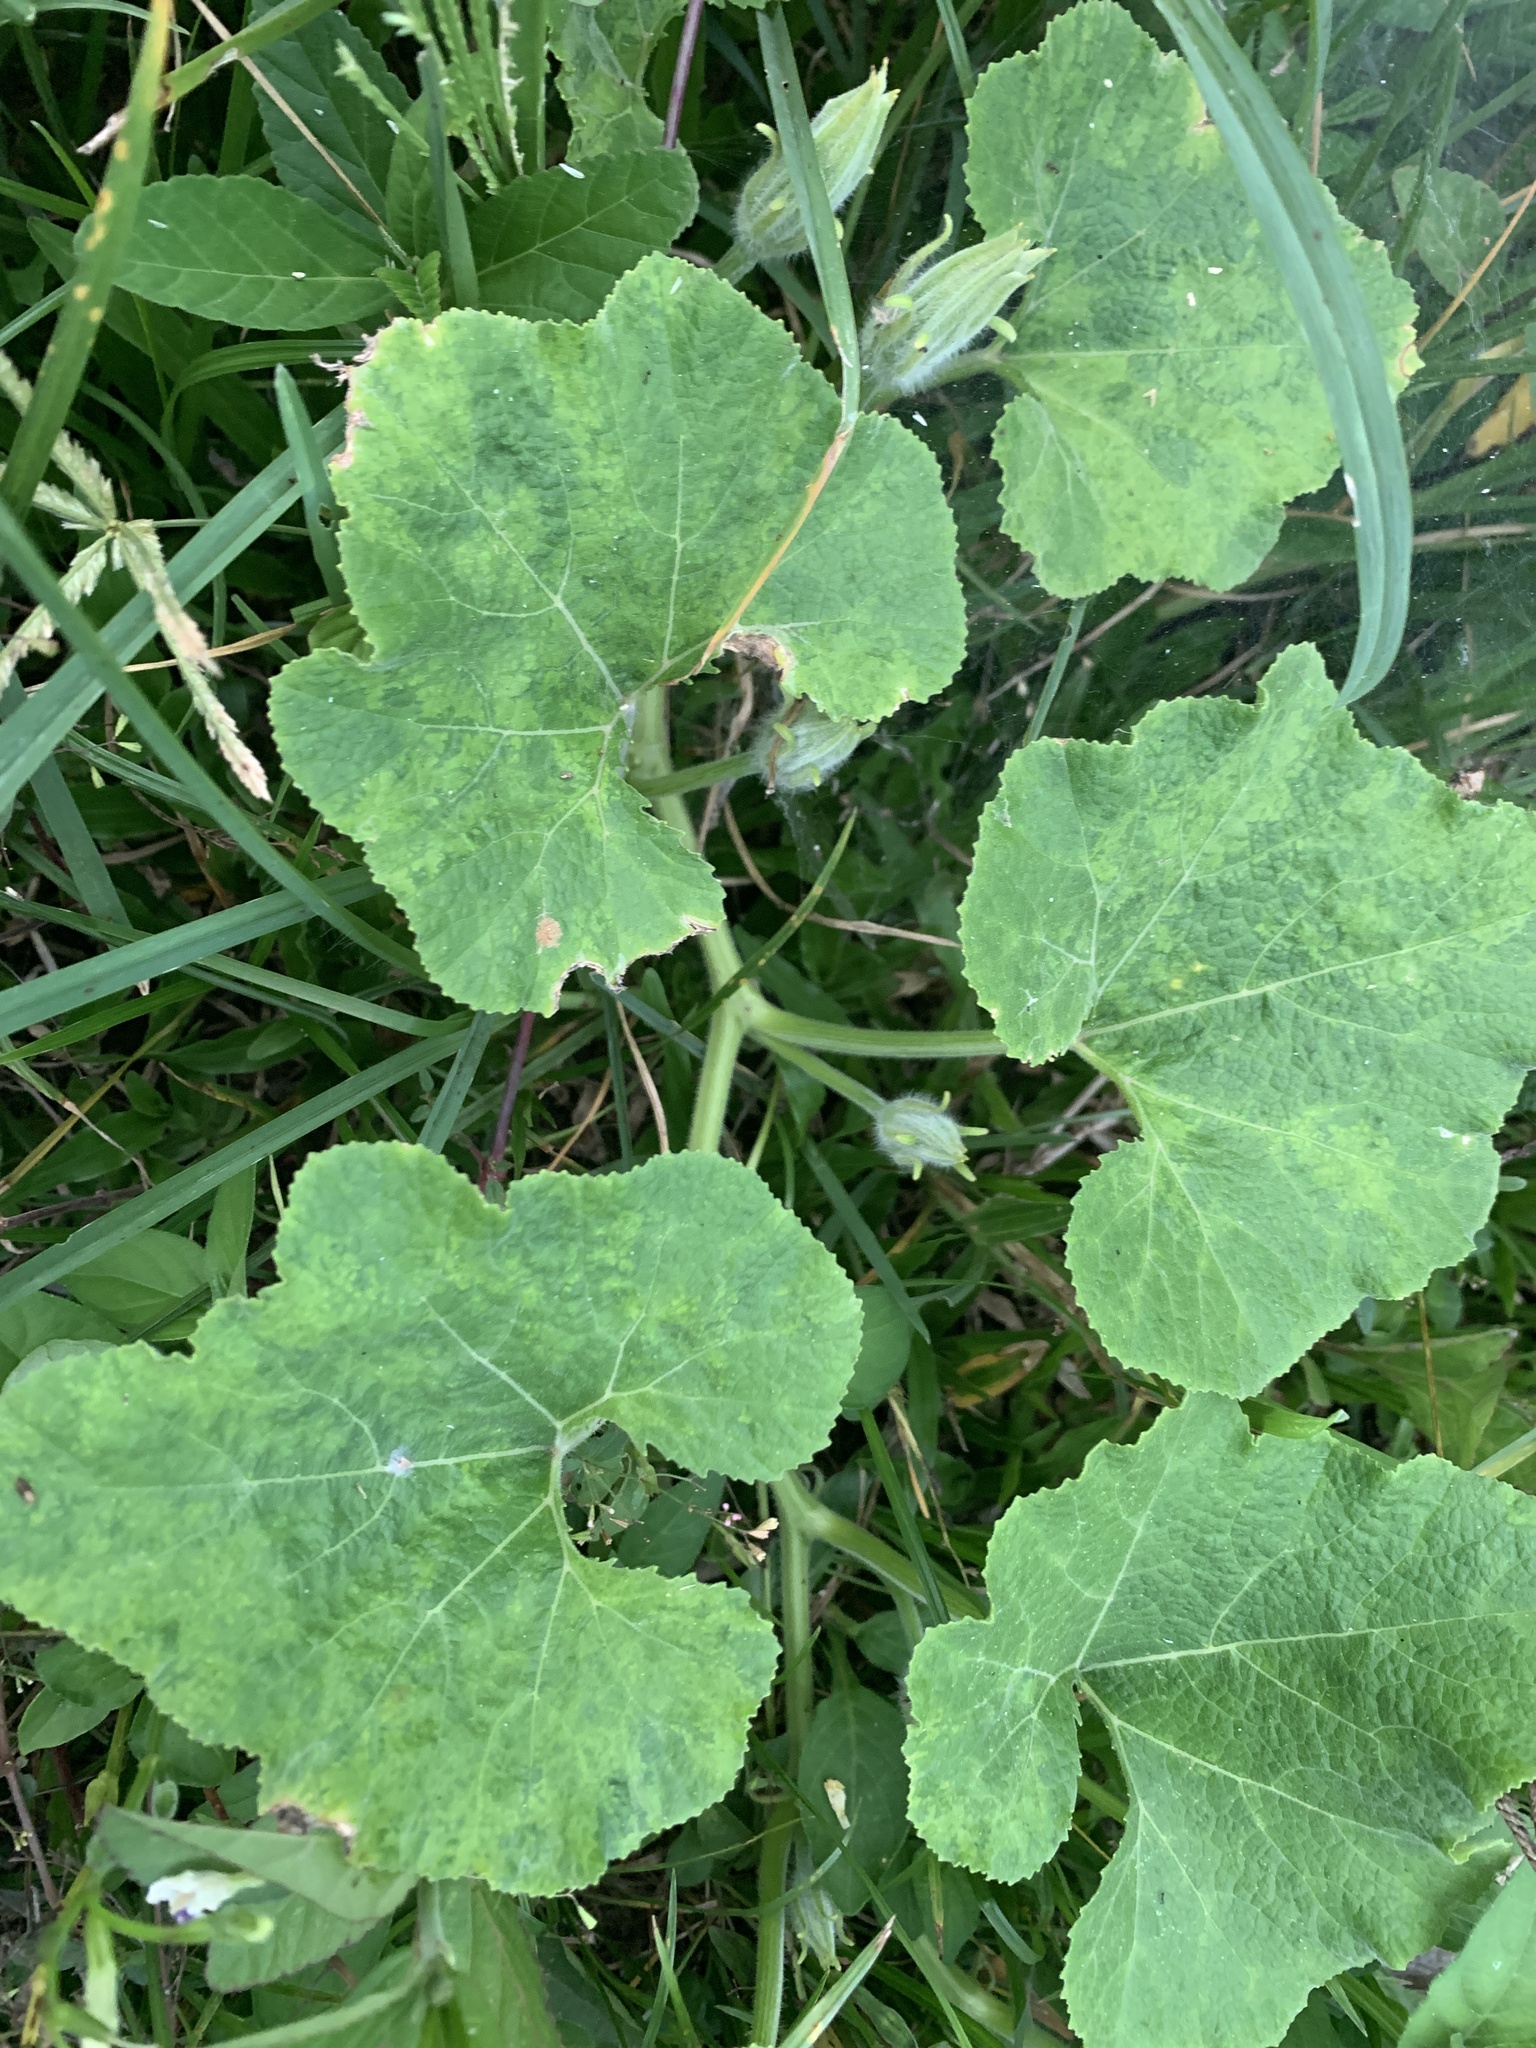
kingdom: Plantae
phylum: Tracheophyta
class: Magnoliopsida
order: Cucurbitales
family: Cucurbitaceae
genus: Cucurbita
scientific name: Cucurbita moschata
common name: Squash / pumpkin
